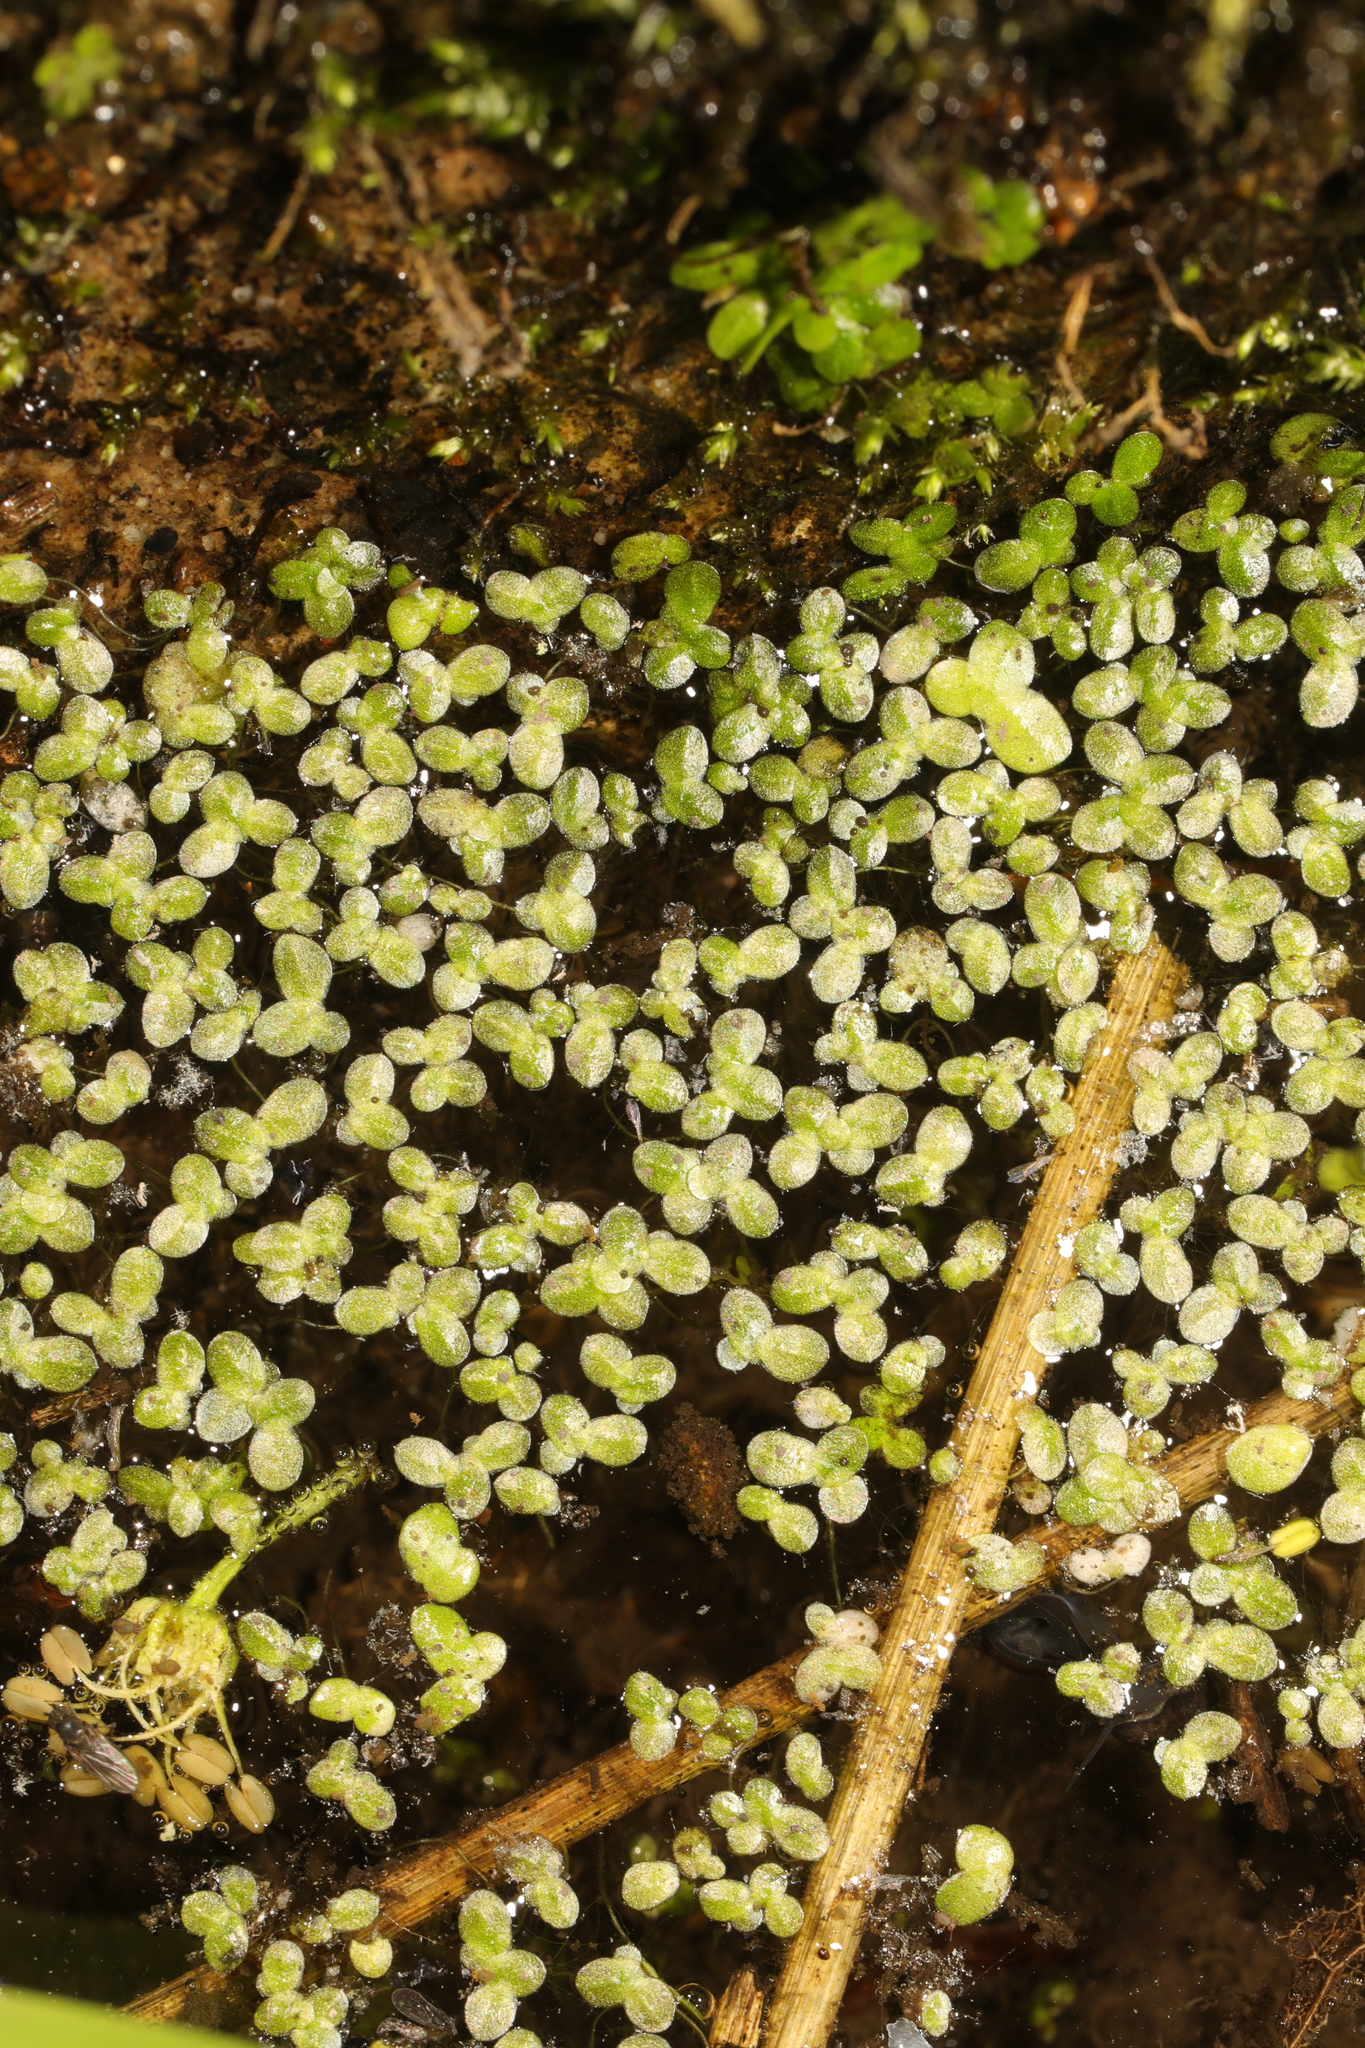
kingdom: Plantae
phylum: Tracheophyta
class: Liliopsida
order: Alismatales
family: Araceae
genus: Lemna
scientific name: Lemna minor
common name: Common duckweed
